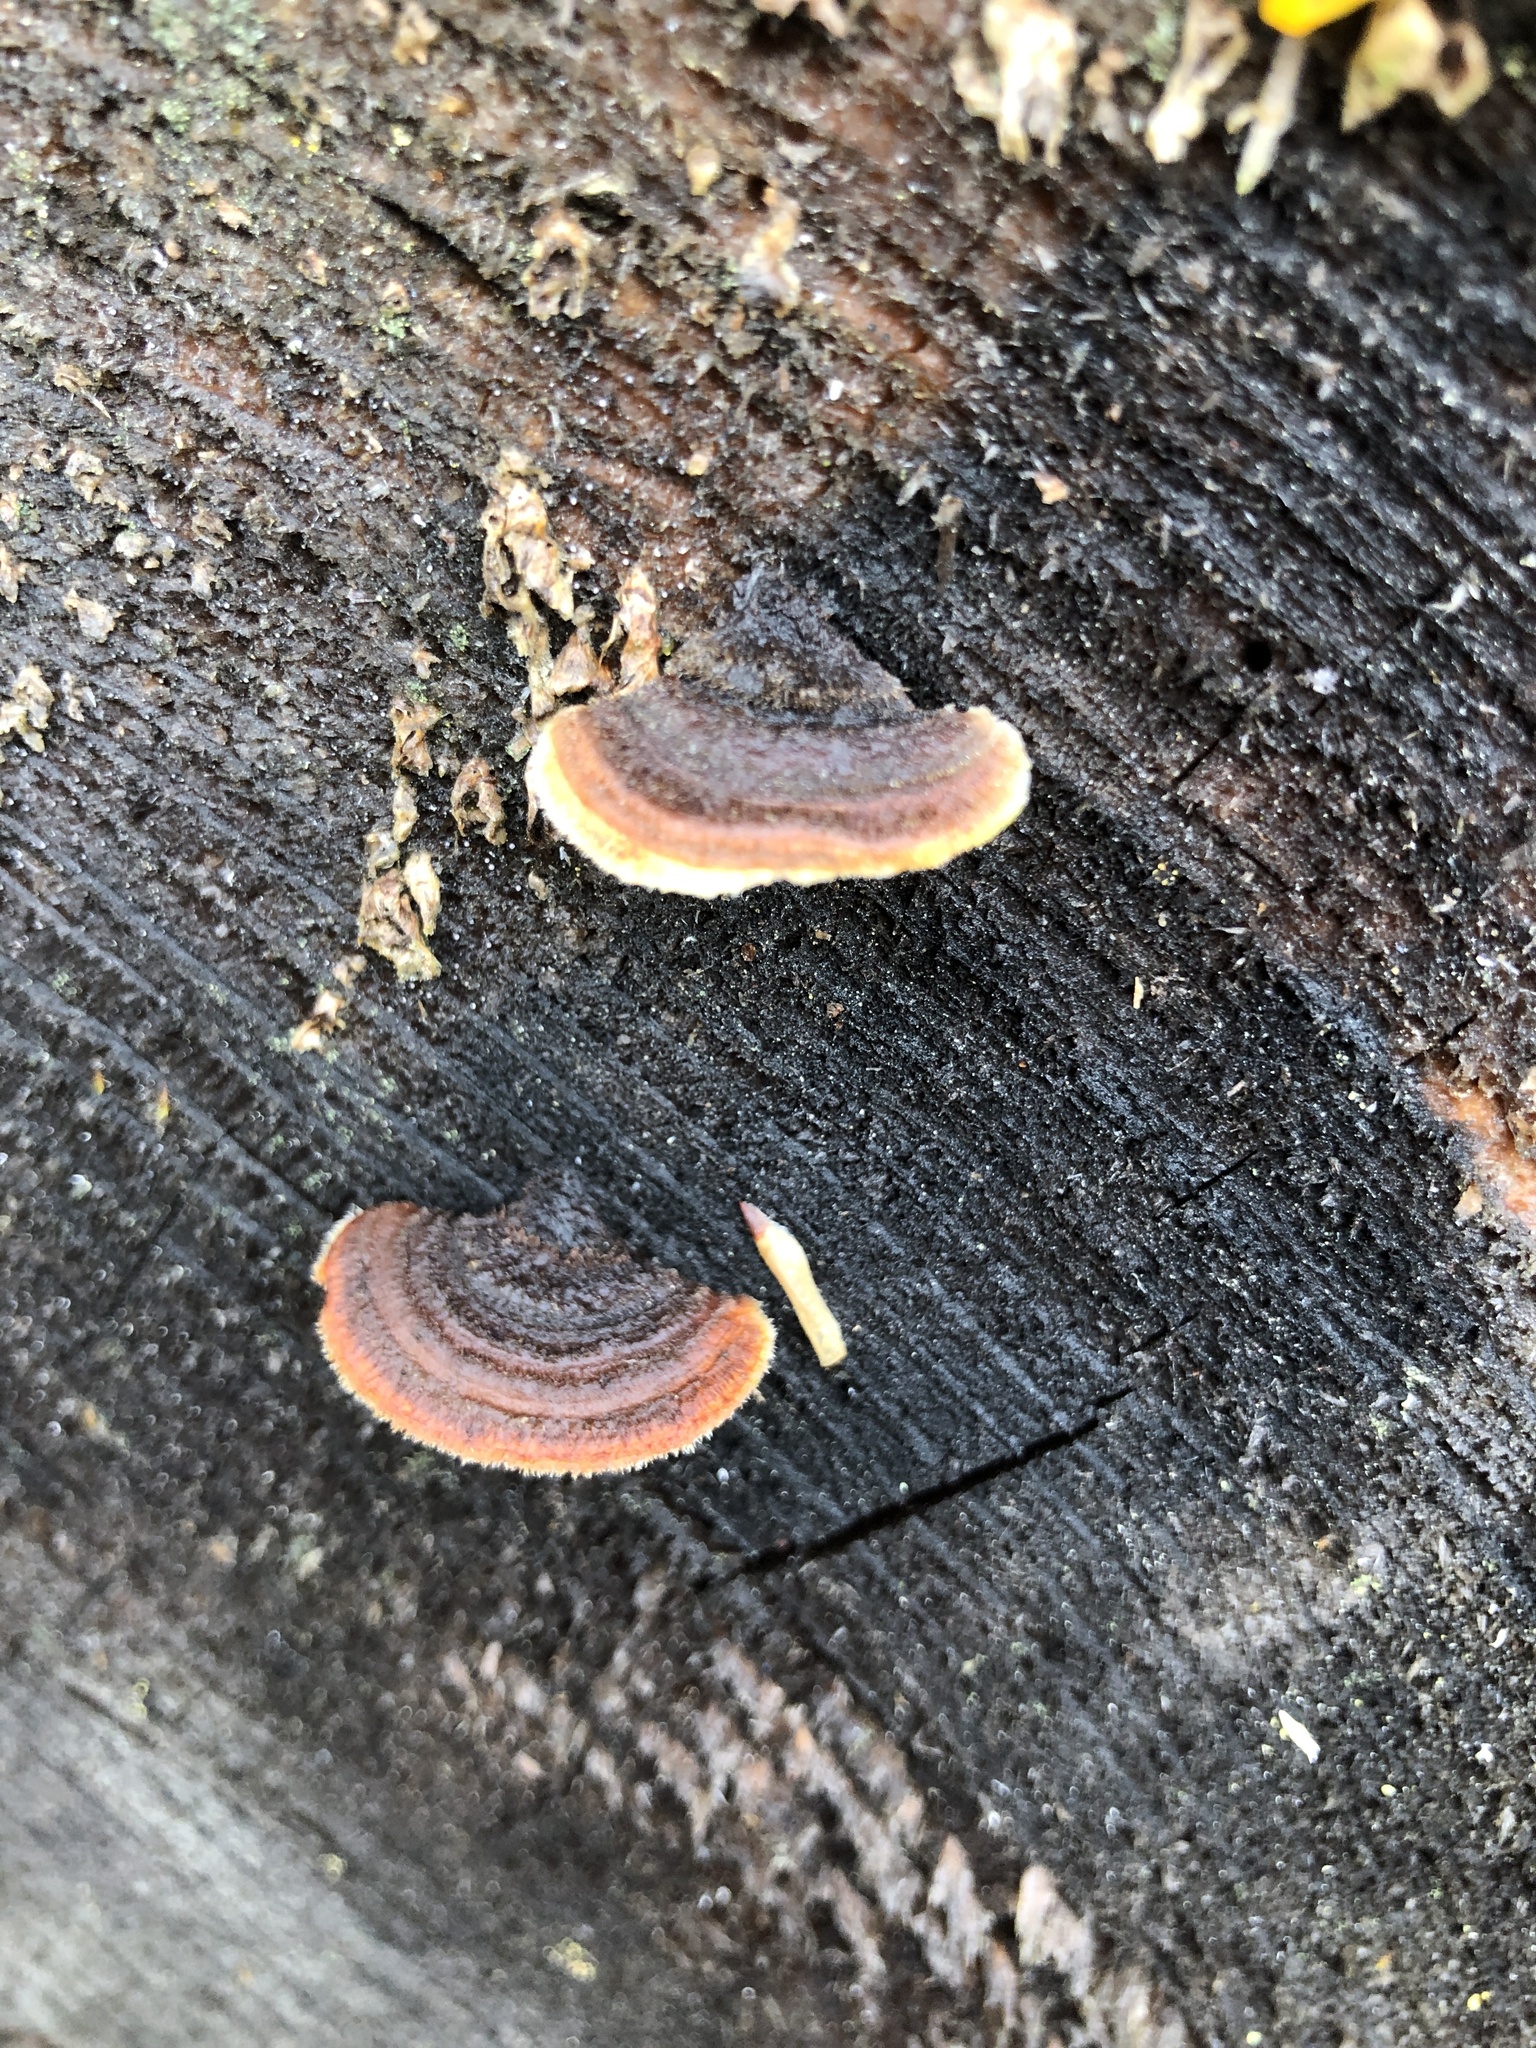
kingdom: Fungi
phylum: Basidiomycota
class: Agaricomycetes
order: Gloeophyllales
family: Gloeophyllaceae
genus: Gloeophyllum
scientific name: Gloeophyllum sepiarium
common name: Conifer mazegill
